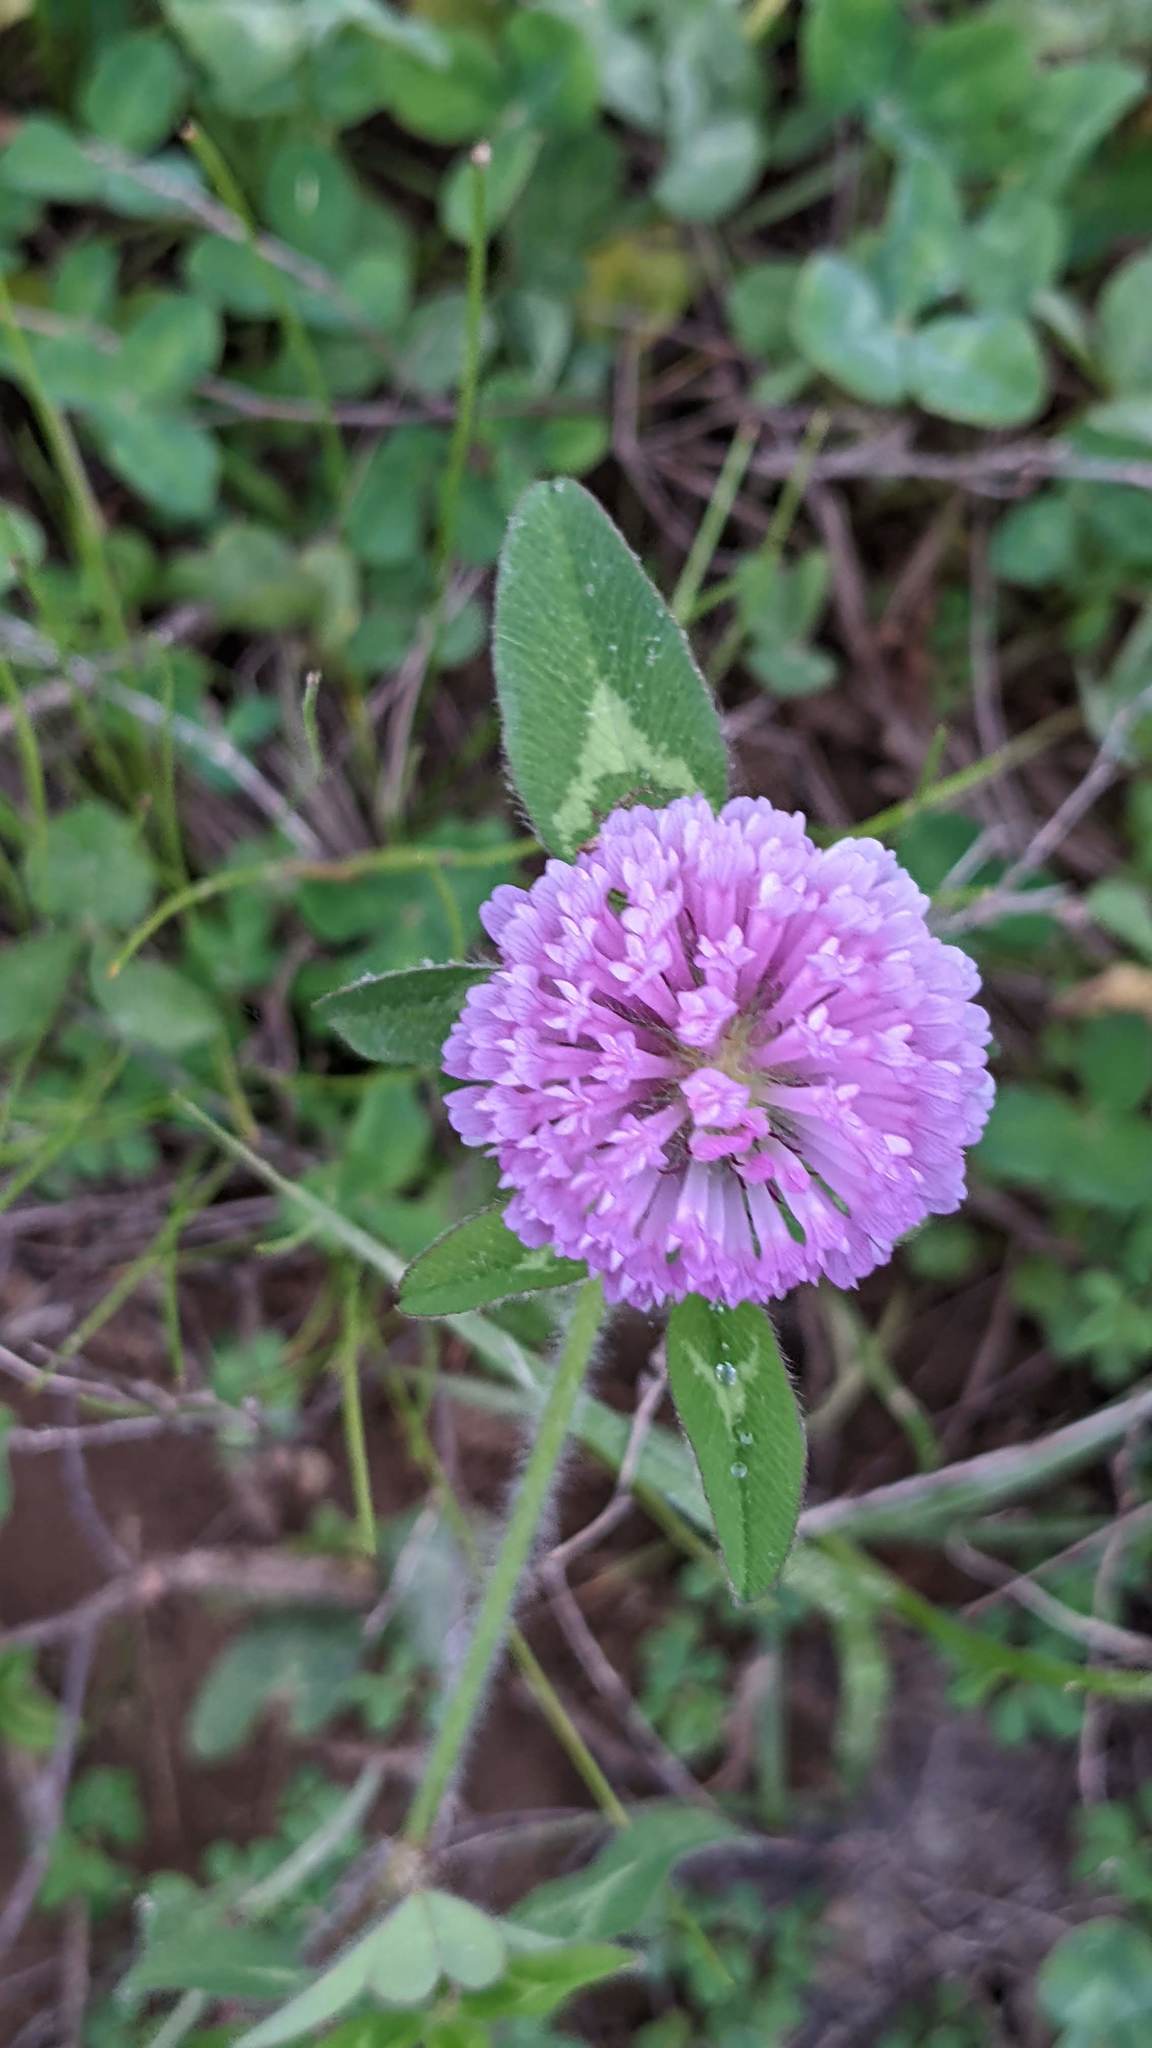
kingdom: Plantae
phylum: Tracheophyta
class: Magnoliopsida
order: Fabales
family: Fabaceae
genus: Trifolium
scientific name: Trifolium pratense
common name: Red clover
